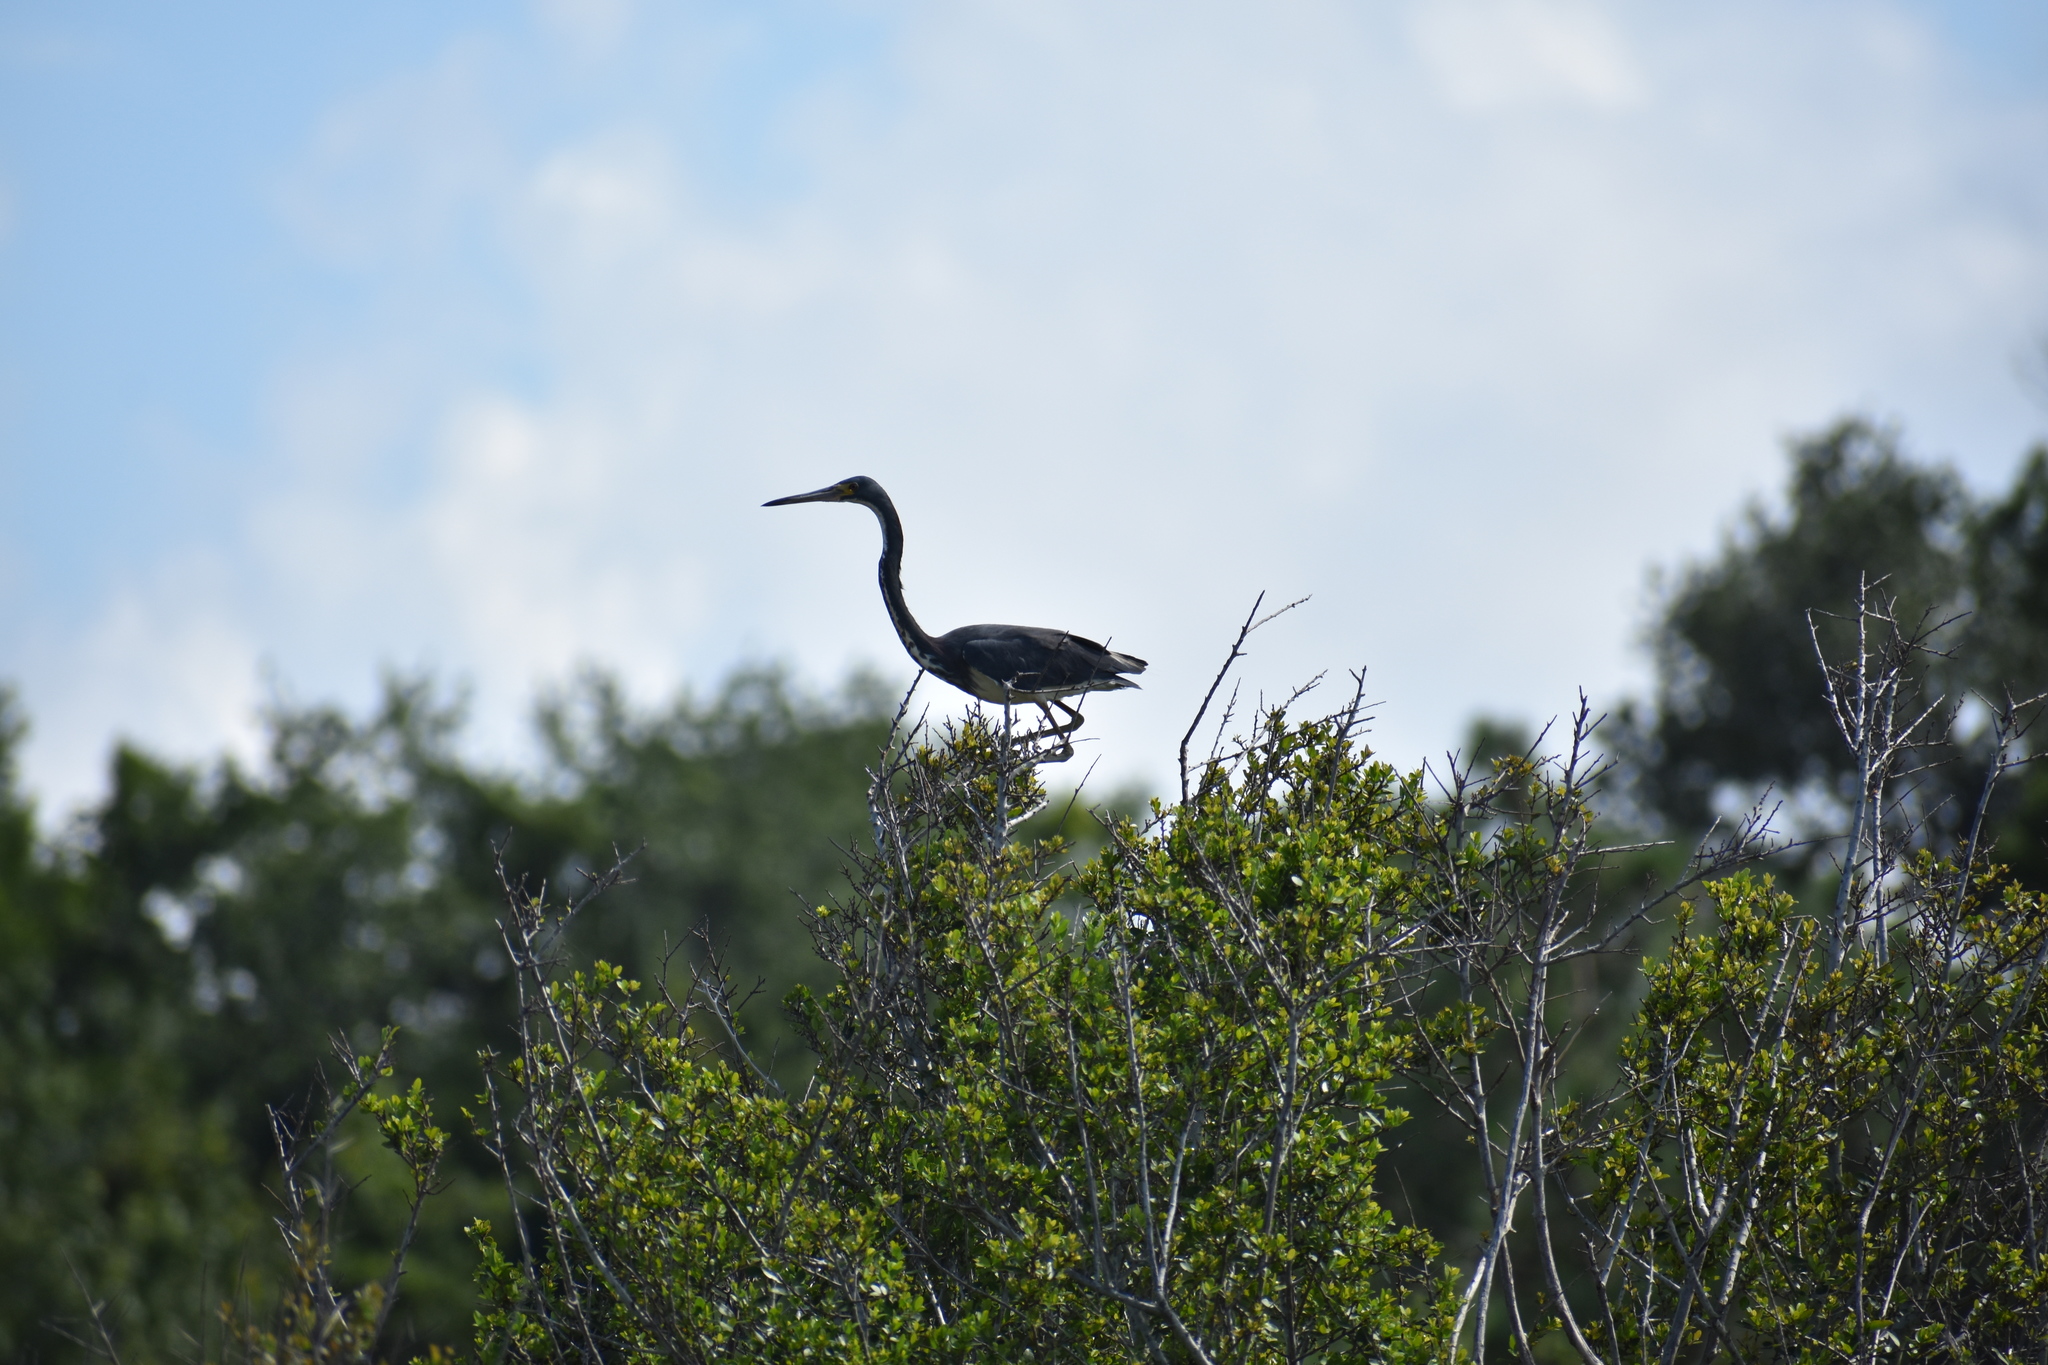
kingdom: Animalia
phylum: Chordata
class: Aves
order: Pelecaniformes
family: Ardeidae
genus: Egretta
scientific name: Egretta tricolor
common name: Tricolored heron
